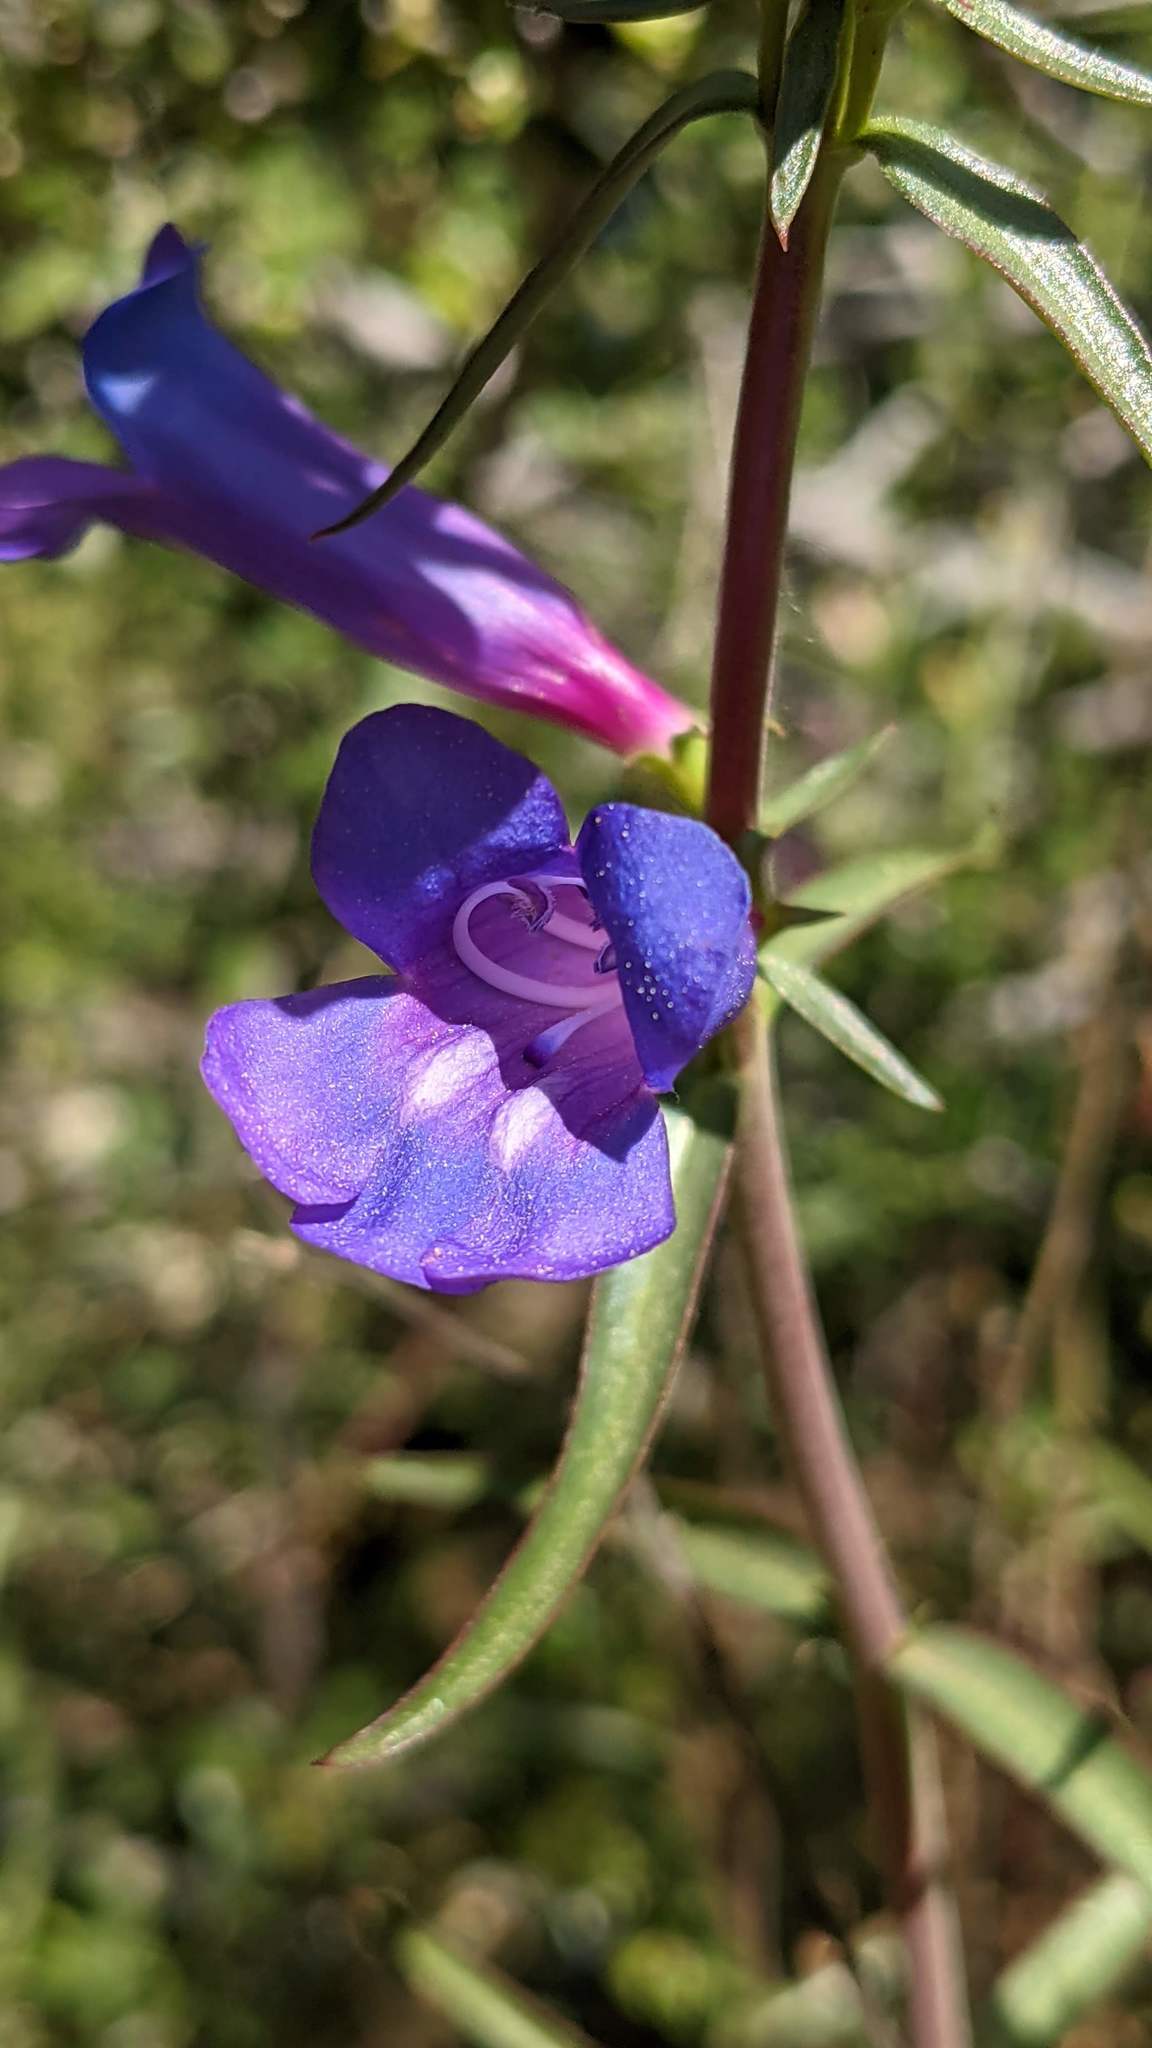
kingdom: Plantae
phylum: Tracheophyta
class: Magnoliopsida
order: Lamiales
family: Plantaginaceae
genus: Penstemon
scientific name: Penstemon heterophyllus
